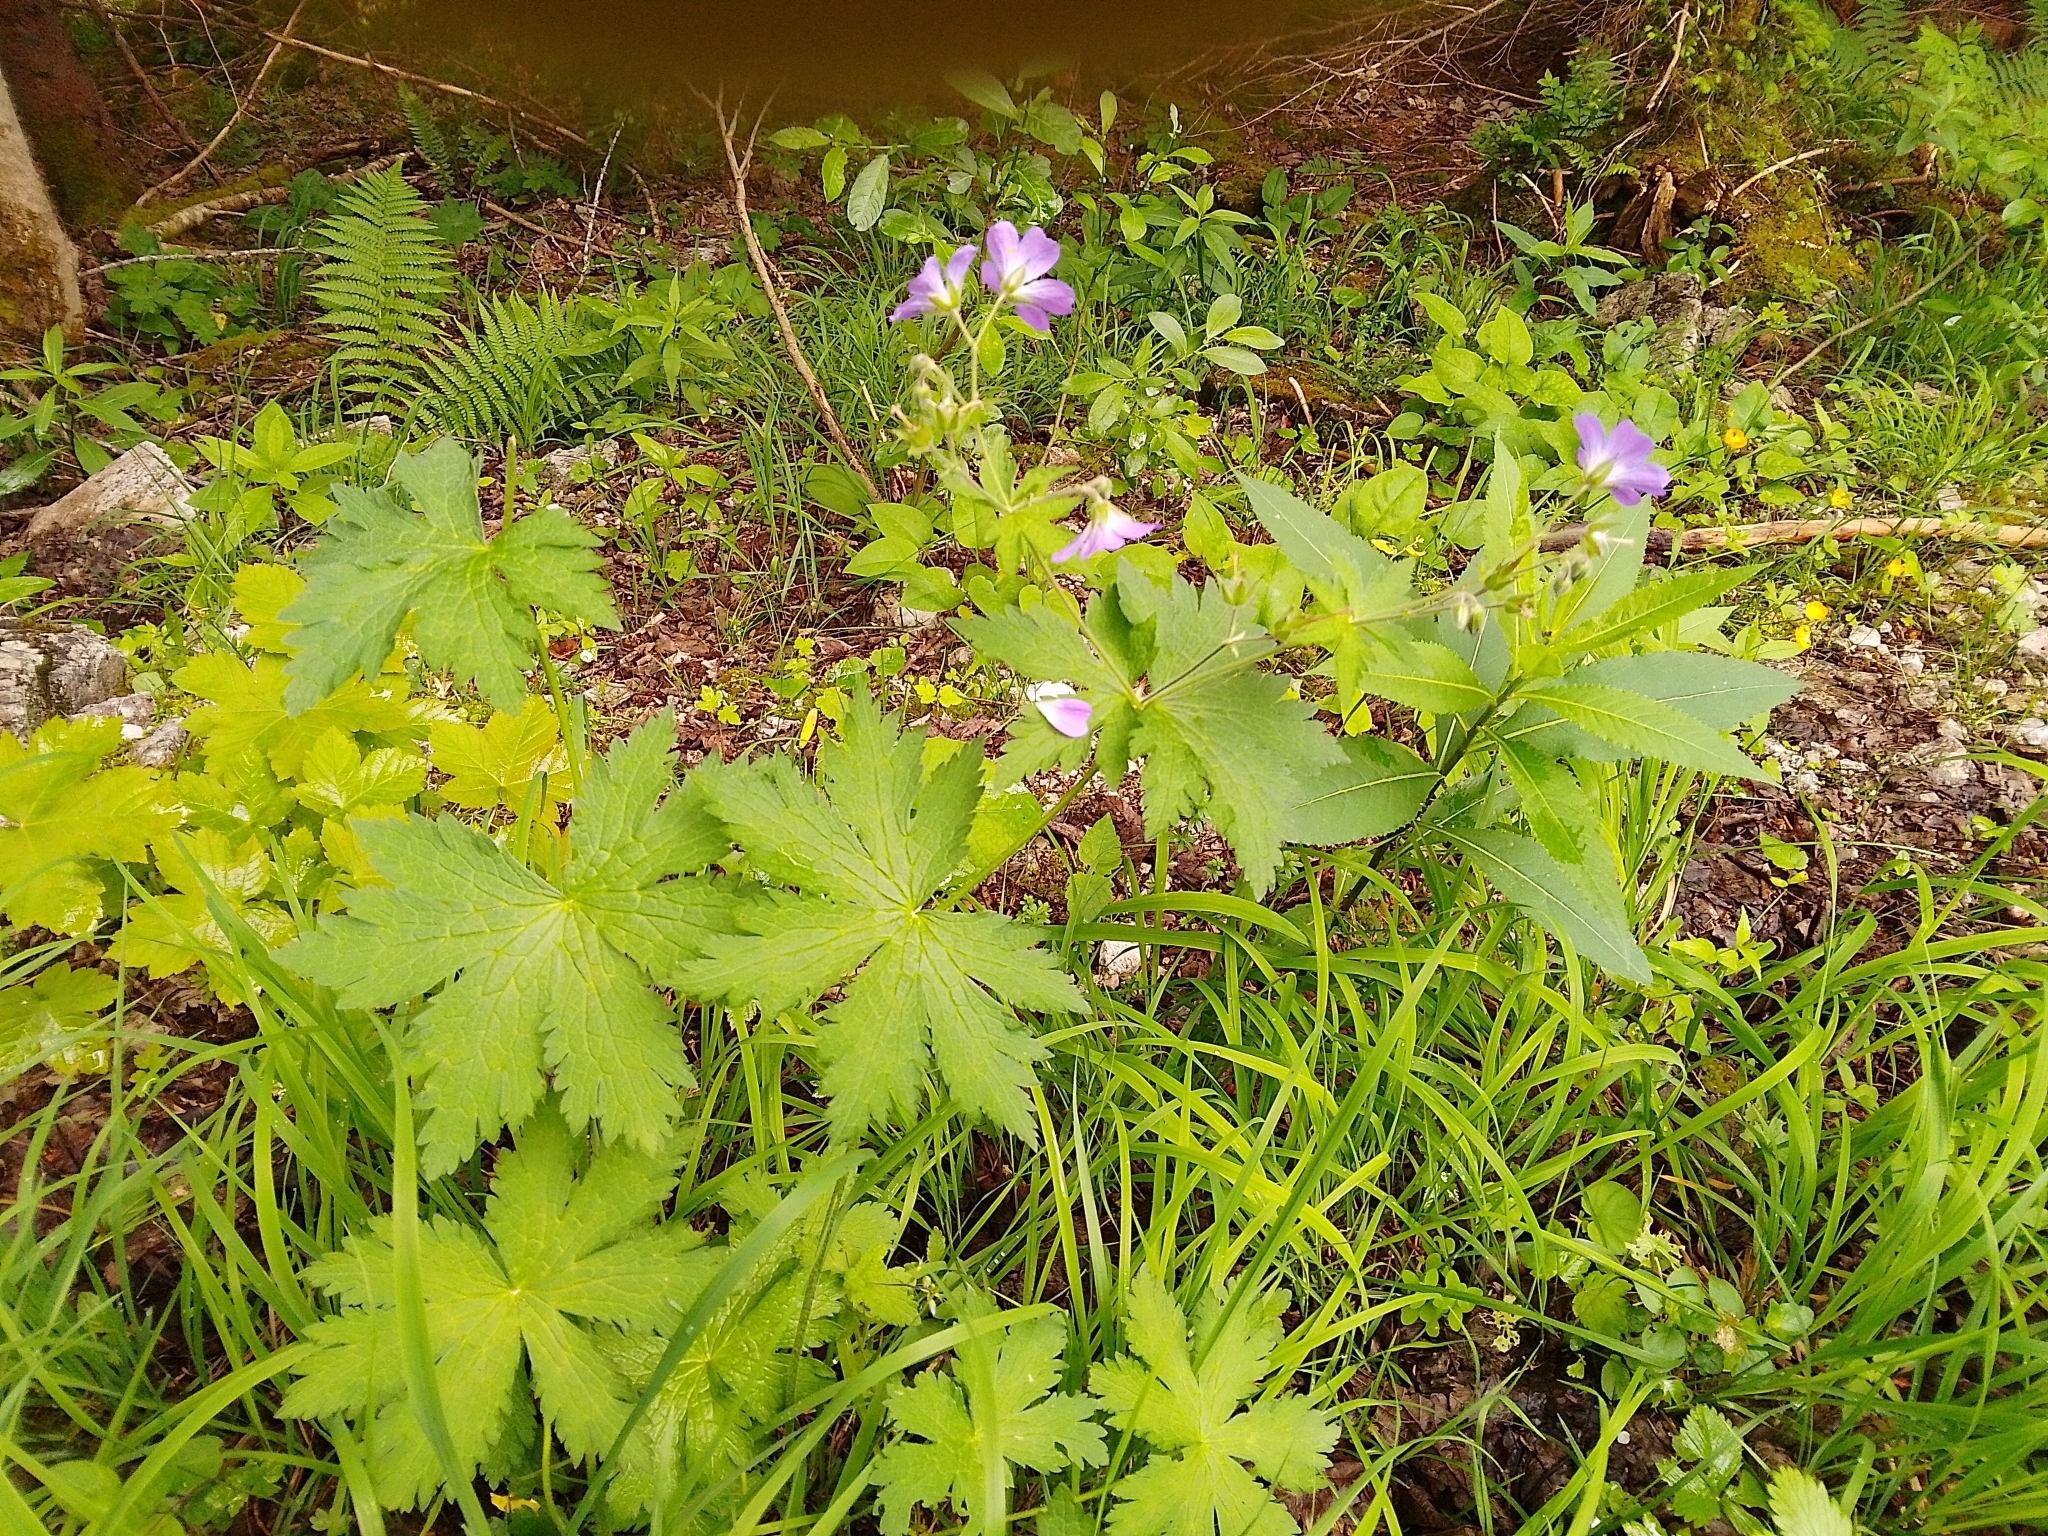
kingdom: Plantae
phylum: Tracheophyta
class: Magnoliopsida
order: Geraniales
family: Geraniaceae
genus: Geranium
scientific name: Geranium sylvaticum
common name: Wood crane's-bill
